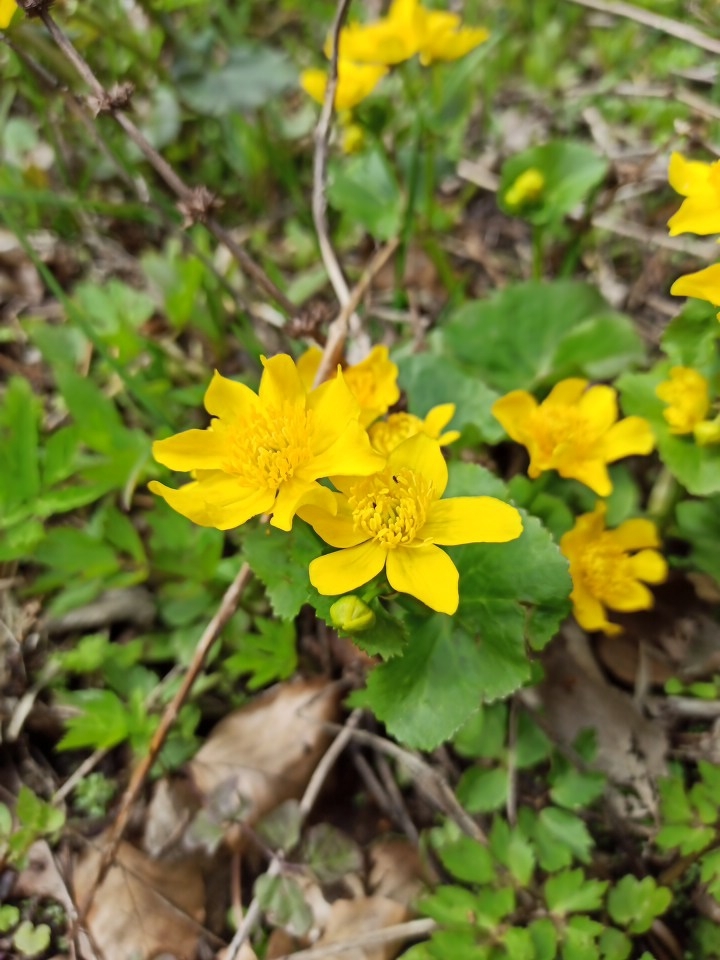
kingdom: Plantae
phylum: Tracheophyta
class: Magnoliopsida
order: Ranunculales
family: Ranunculaceae
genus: Caltha
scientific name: Caltha palustris
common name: Marsh marigold
